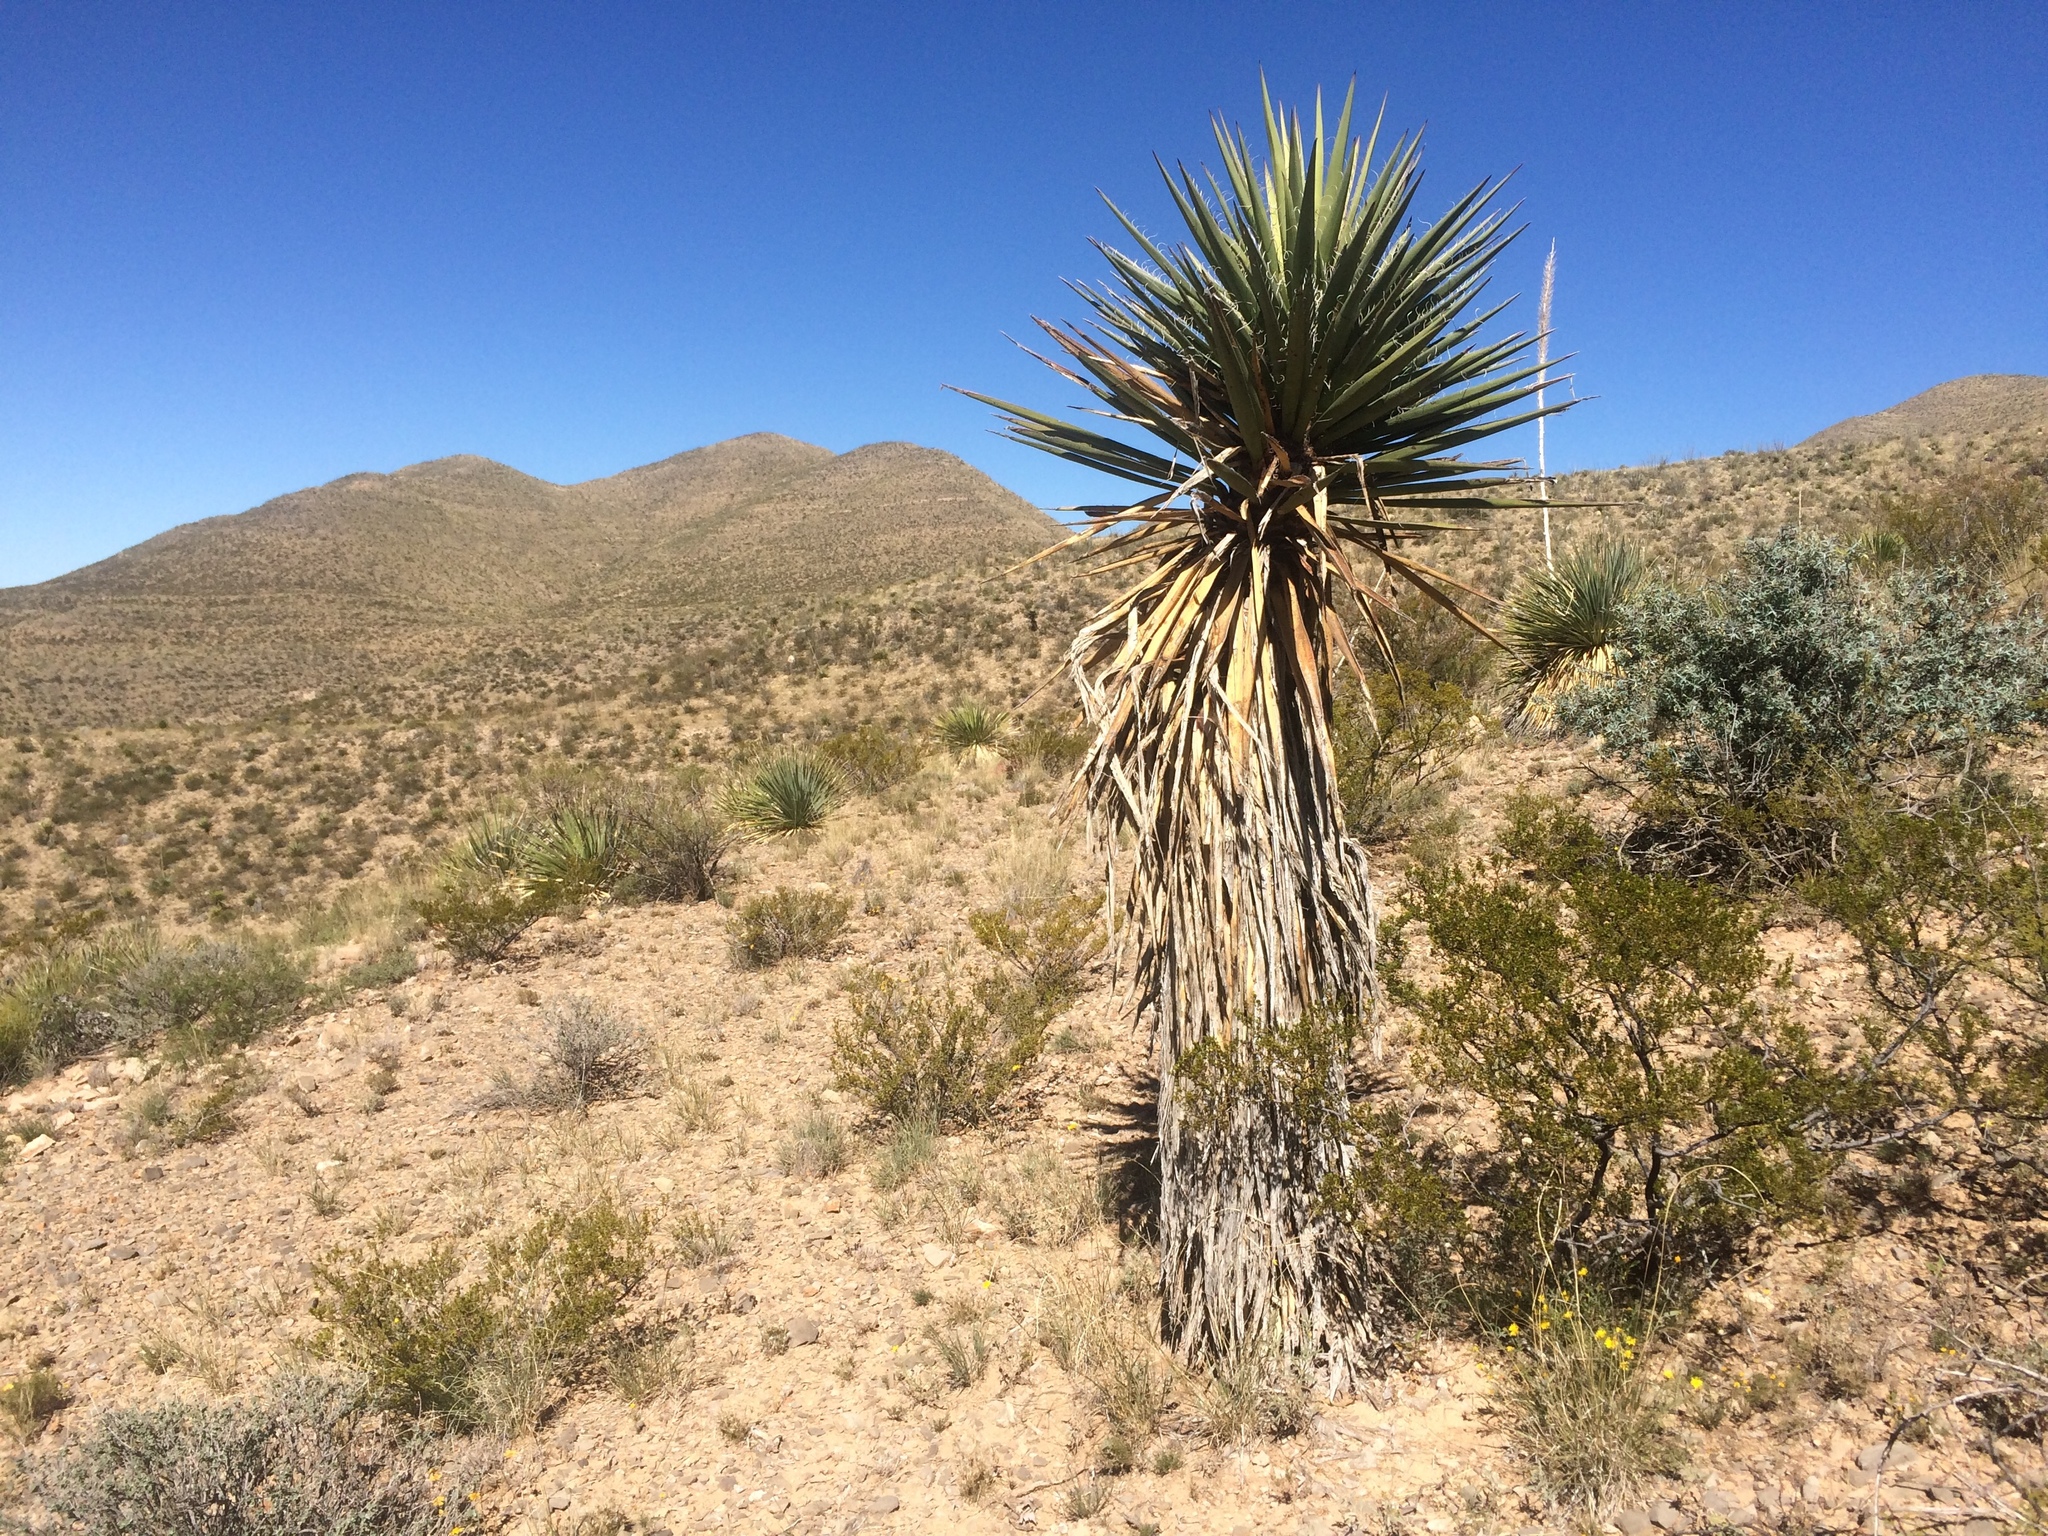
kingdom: Plantae
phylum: Tracheophyta
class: Liliopsida
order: Asparagales
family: Asparagaceae
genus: Yucca
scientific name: Yucca treculiana
